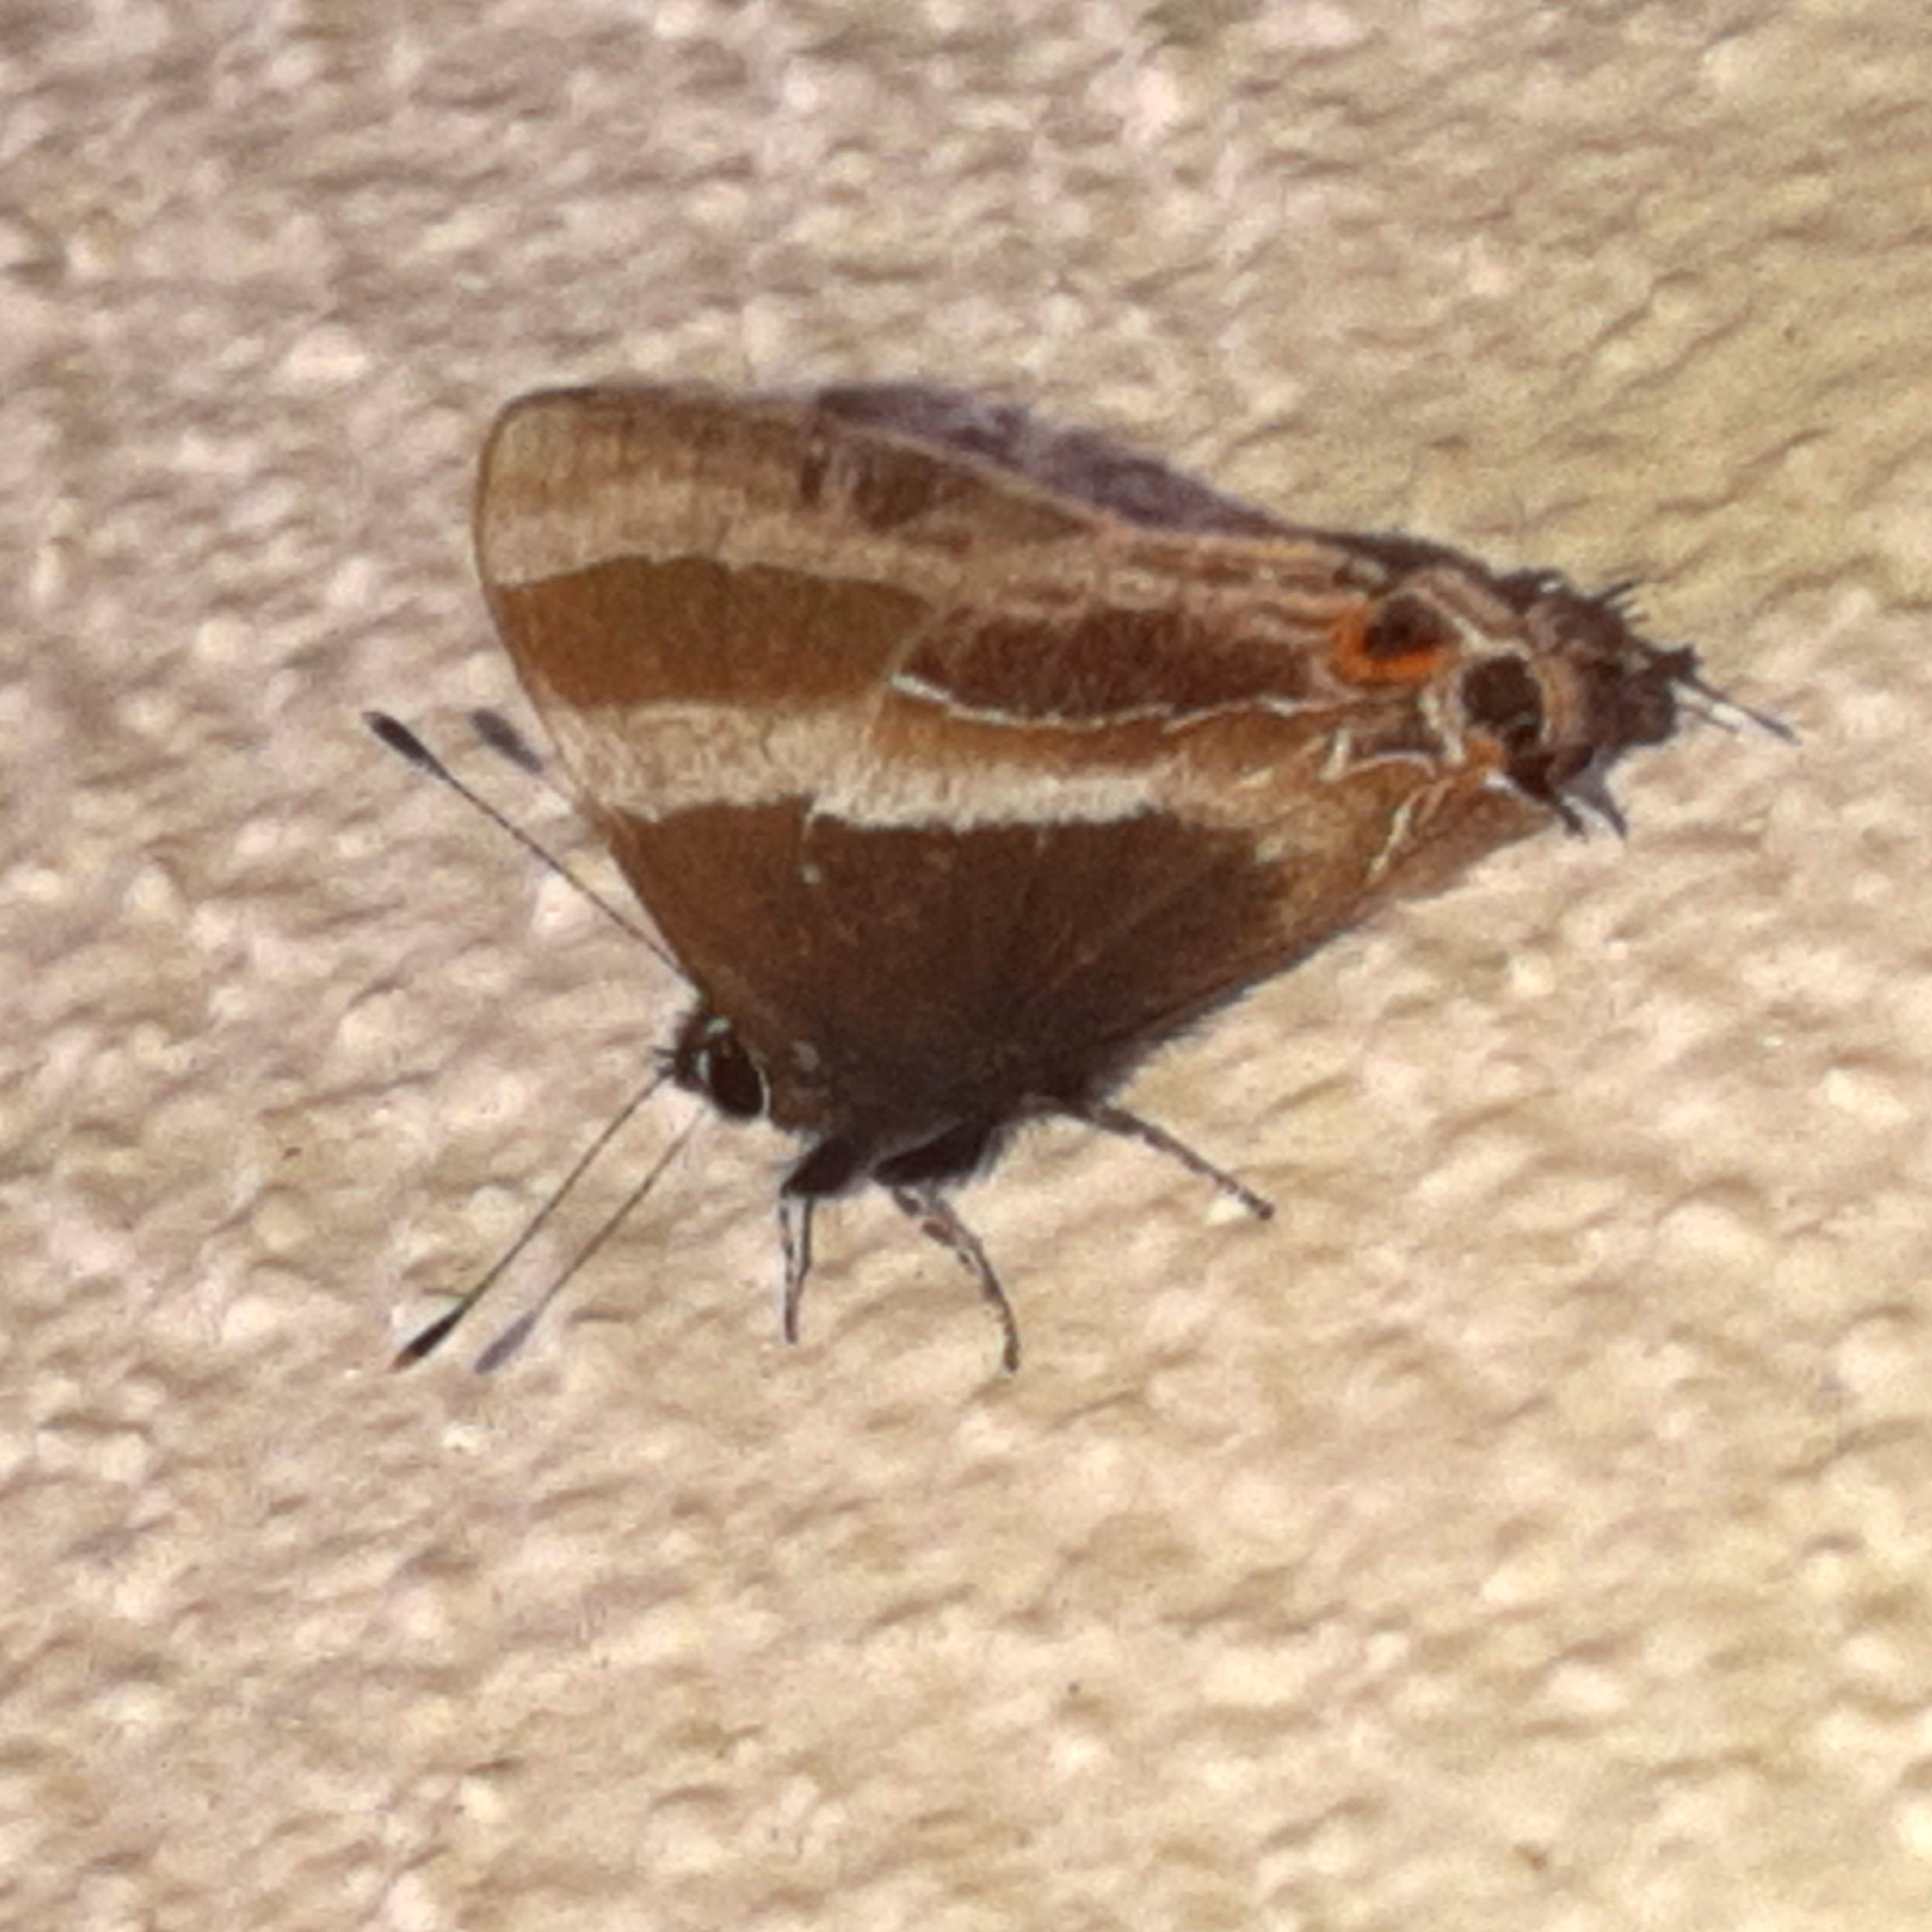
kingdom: Animalia
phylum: Arthropoda
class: Insecta
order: Lepidoptera
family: Lycaenidae
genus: Arzecla
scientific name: Arzecla
